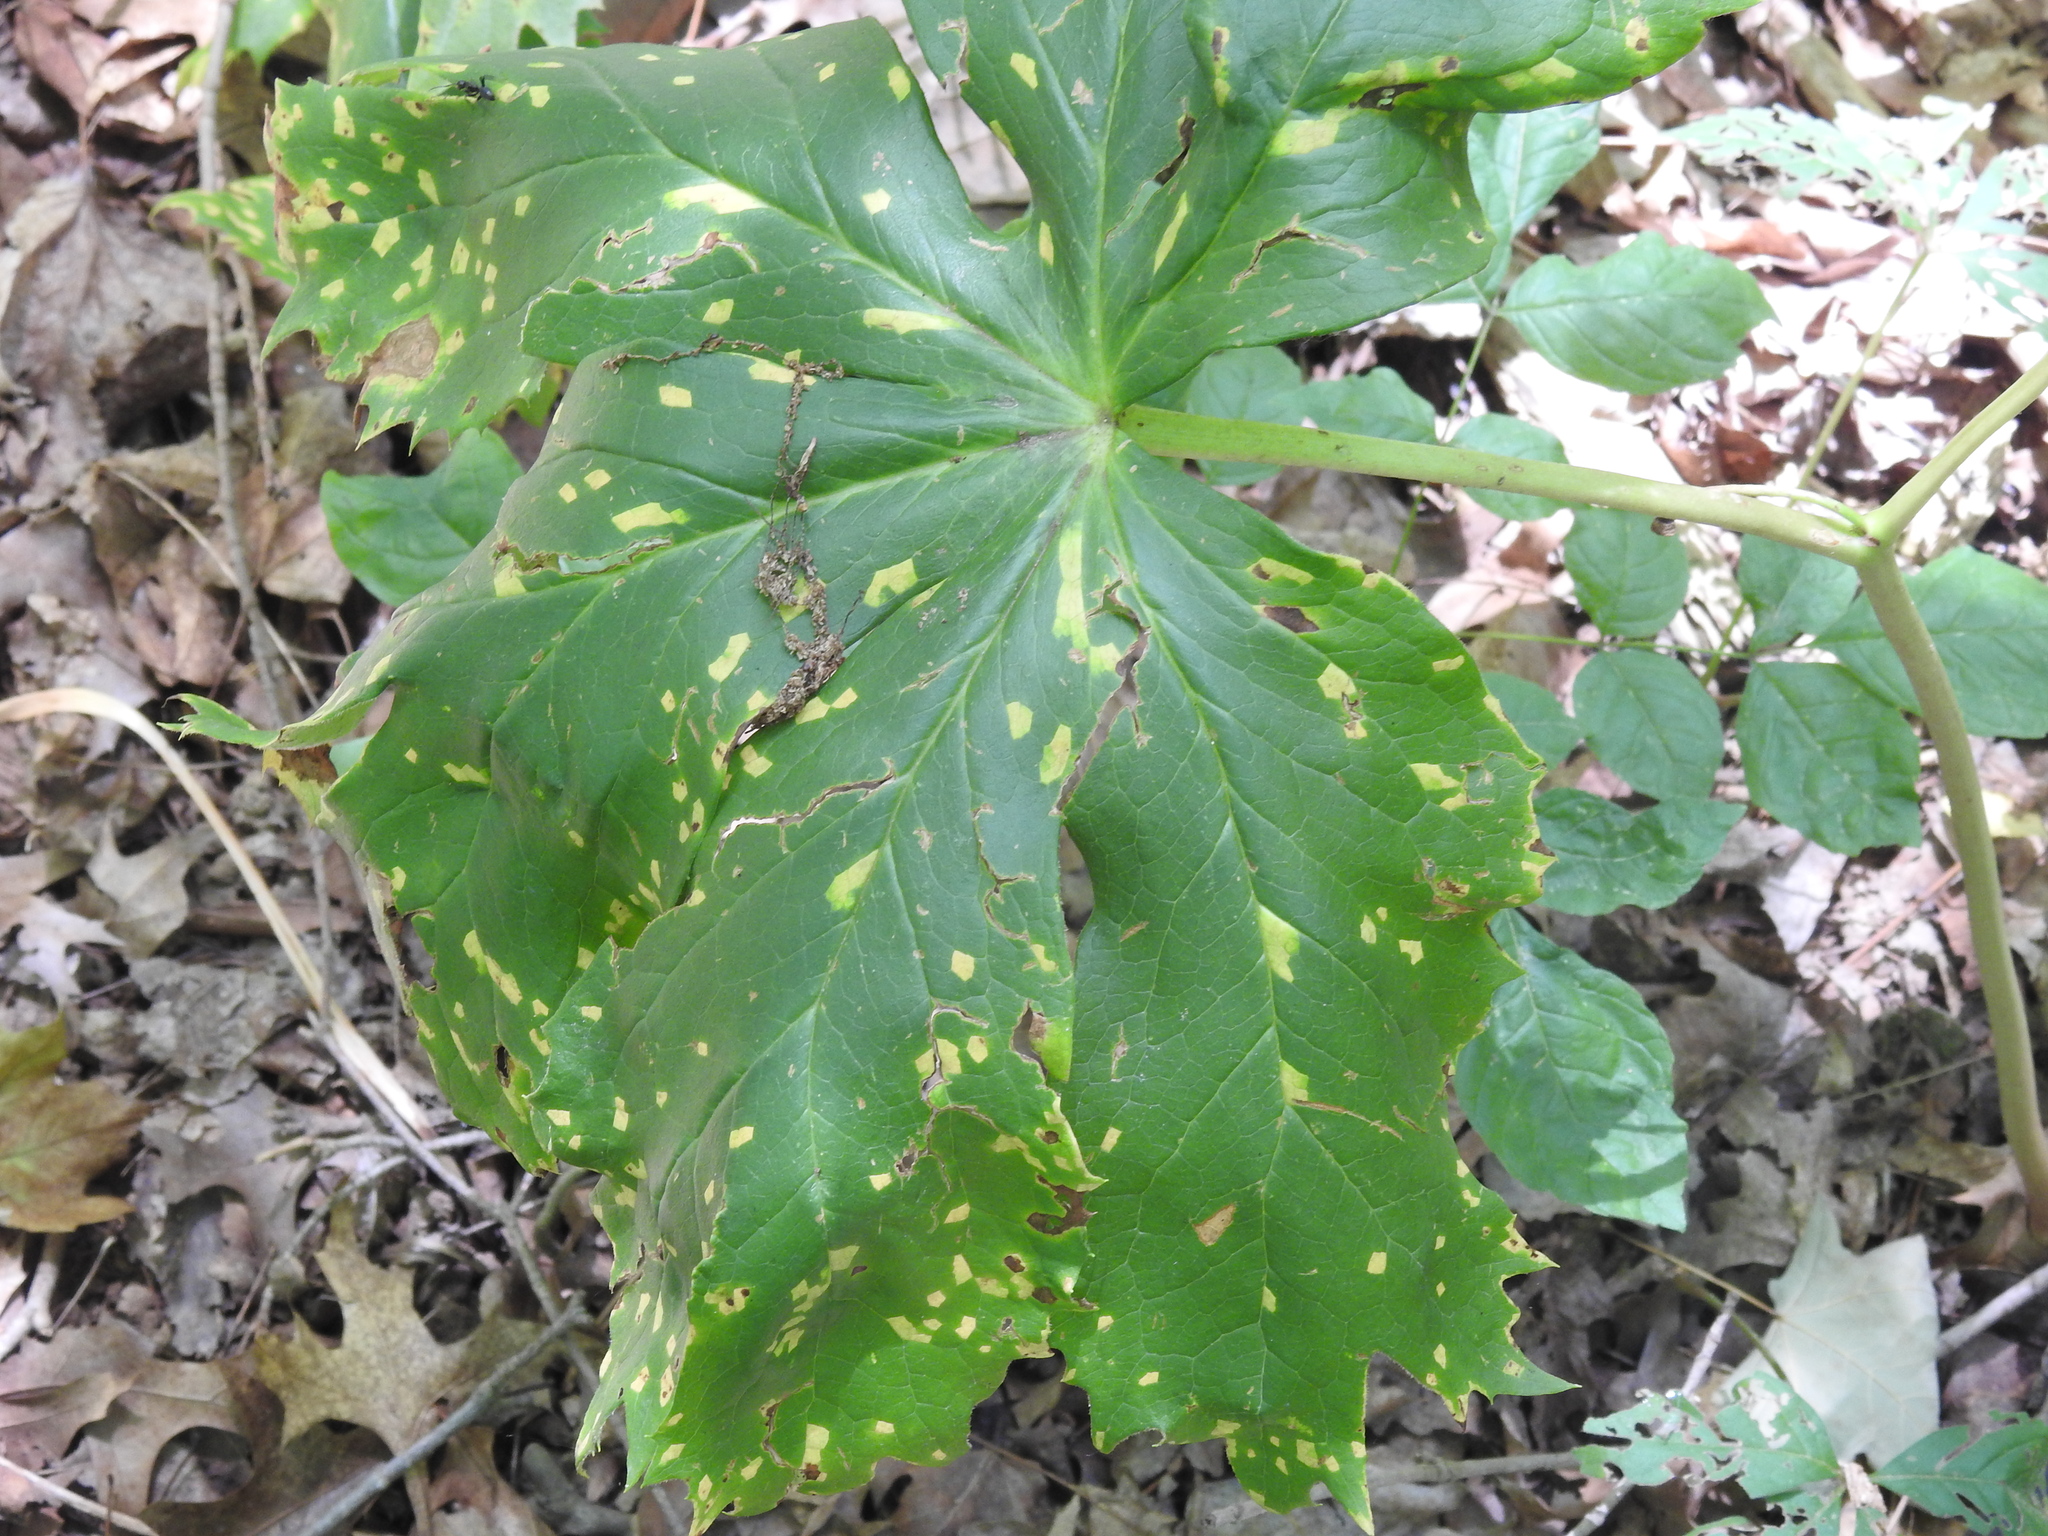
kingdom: Plantae
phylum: Tracheophyta
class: Magnoliopsida
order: Ranunculales
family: Berberidaceae
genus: Podophyllum
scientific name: Podophyllum peltatum
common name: Wild mandrake
